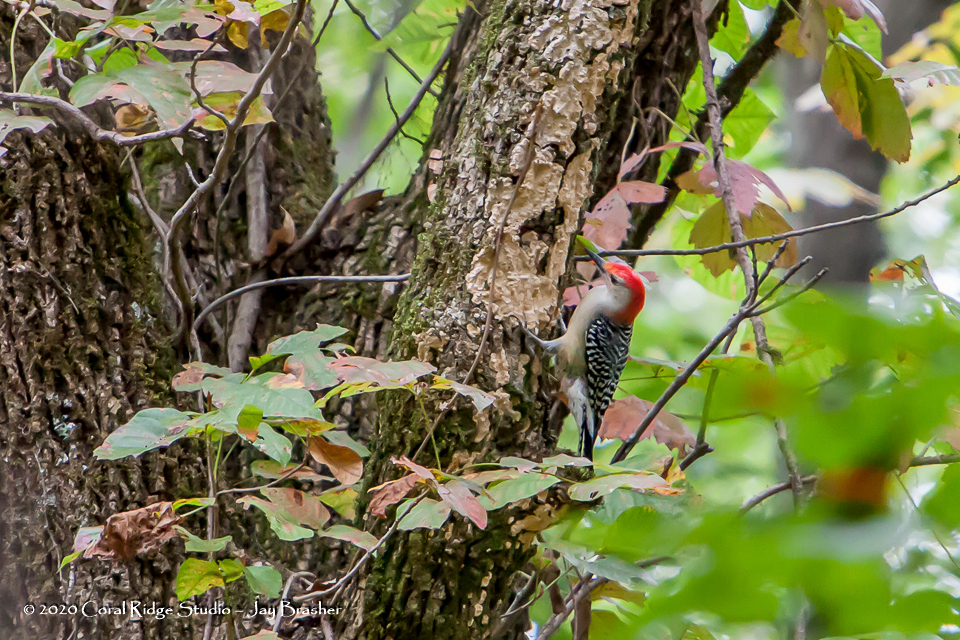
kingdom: Animalia
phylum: Chordata
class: Aves
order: Piciformes
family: Picidae
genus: Melanerpes
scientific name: Melanerpes carolinus
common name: Red-bellied woodpecker
